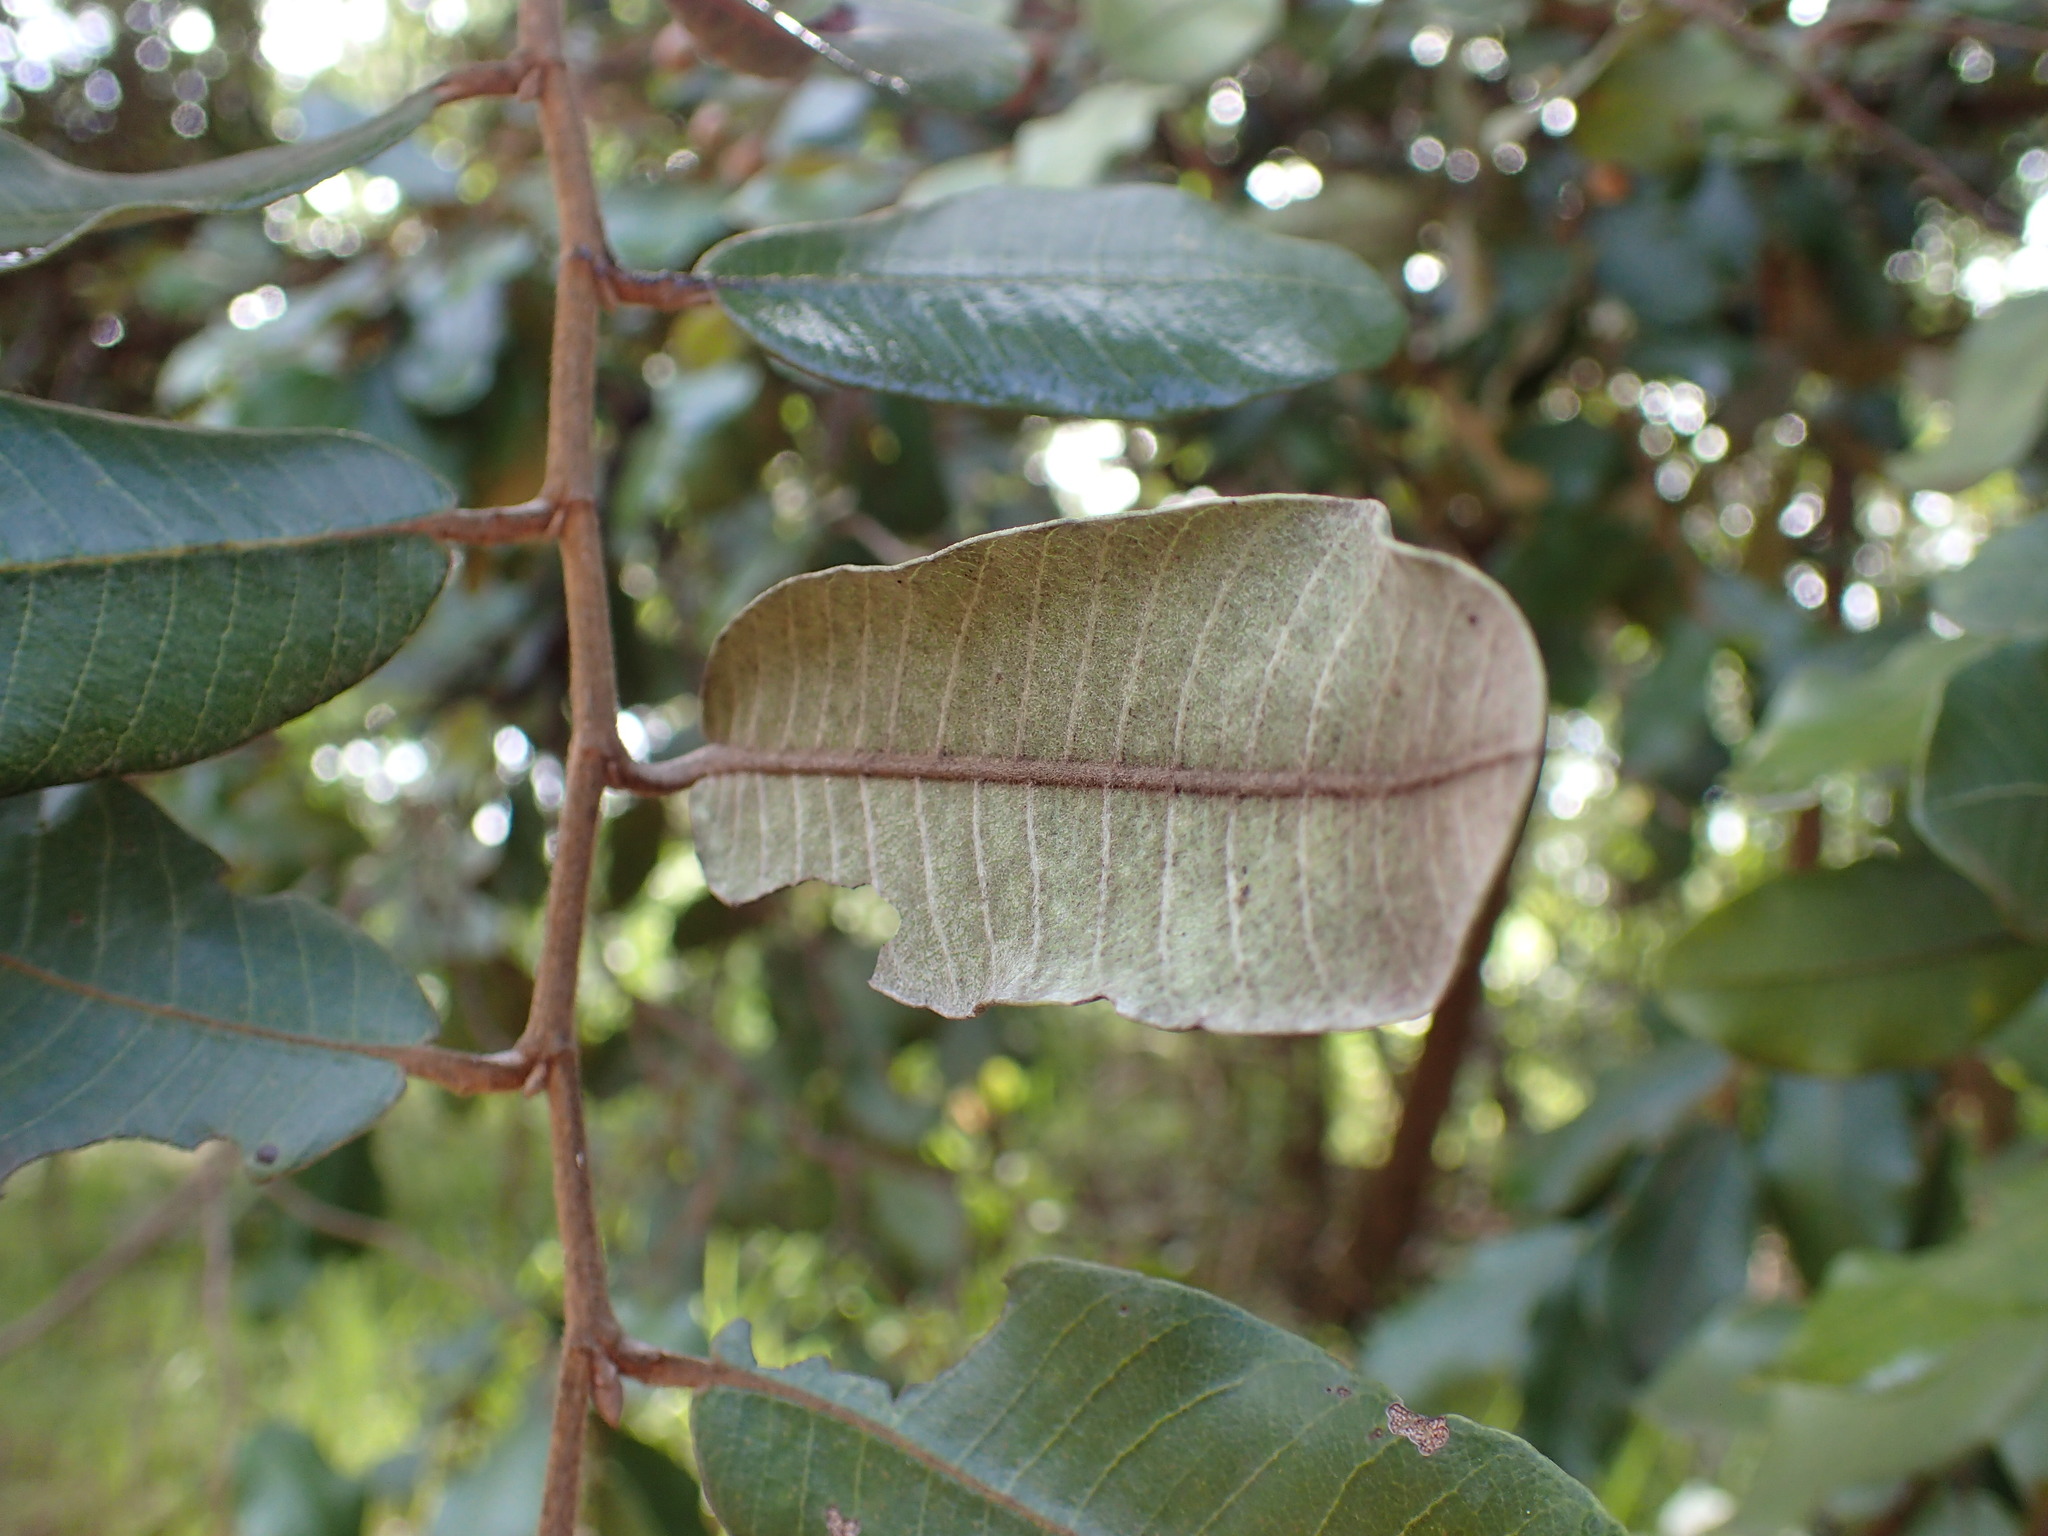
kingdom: Plantae
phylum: Tracheophyta
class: Magnoliopsida
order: Malpighiales
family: Chrysobalanaceae
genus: Parinari
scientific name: Parinari curatellifolia
